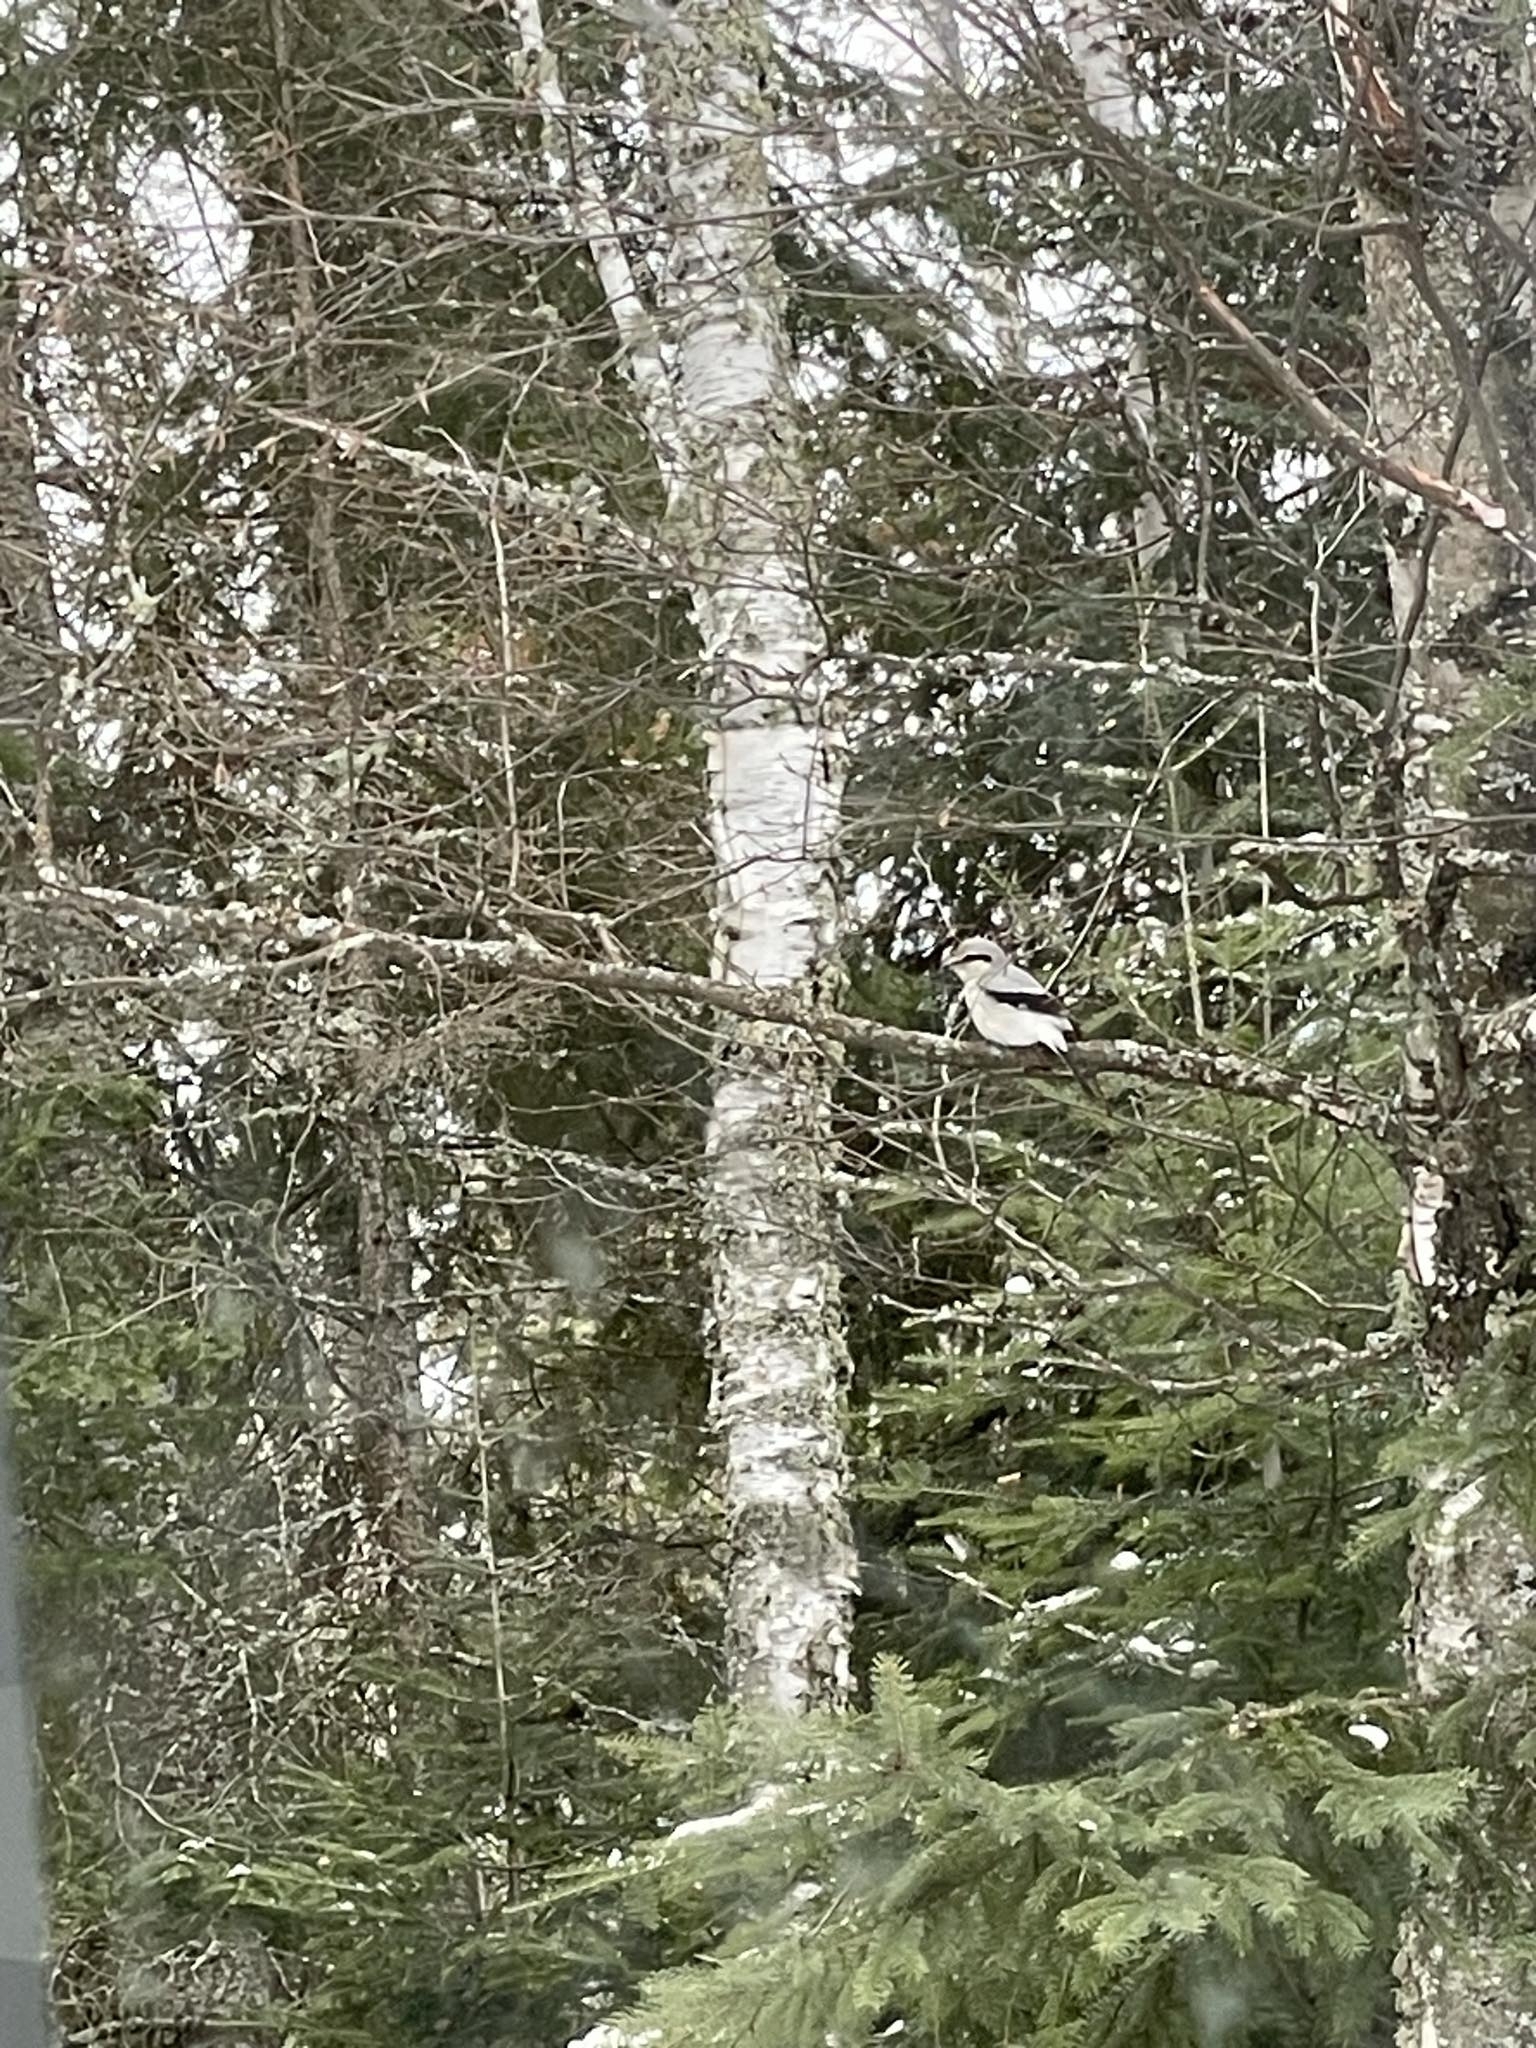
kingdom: Animalia
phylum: Chordata
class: Aves
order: Passeriformes
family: Laniidae
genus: Lanius
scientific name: Lanius borealis
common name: Northern shrike
